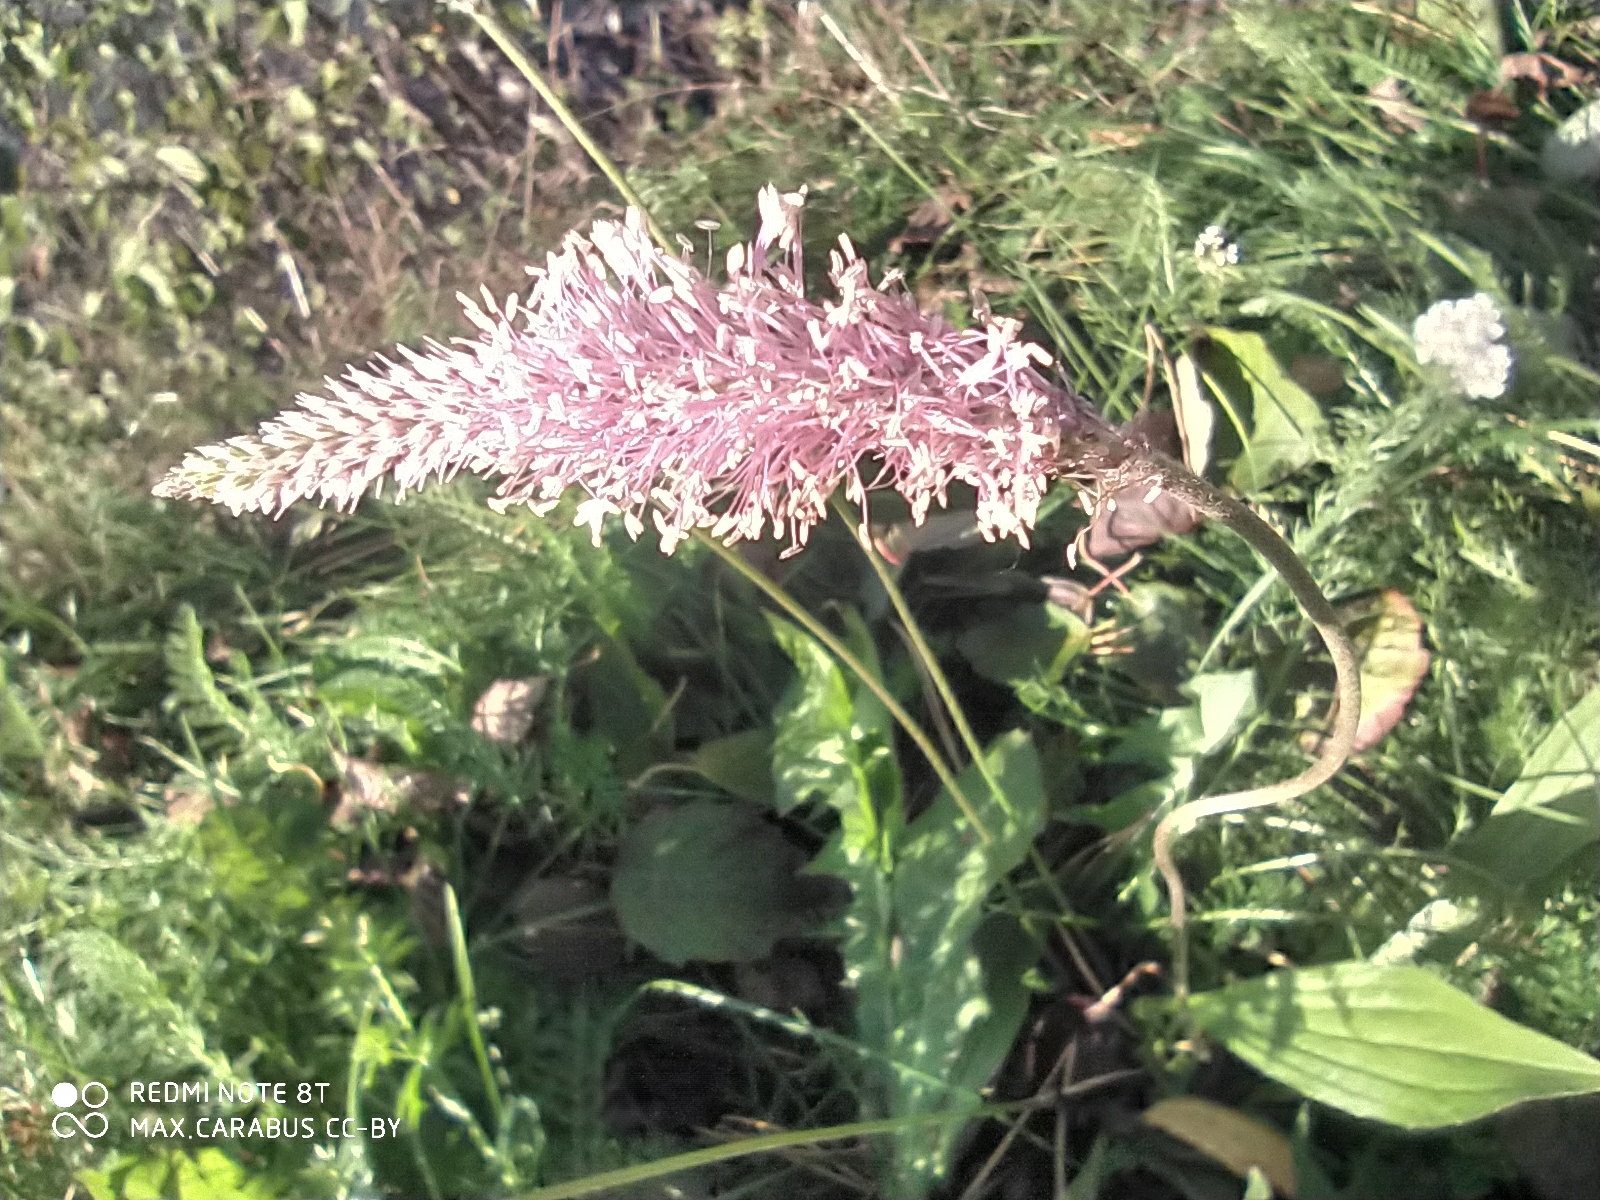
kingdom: Plantae
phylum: Tracheophyta
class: Magnoliopsida
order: Lamiales
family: Plantaginaceae
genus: Plantago
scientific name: Plantago media
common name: Hoary plantain
